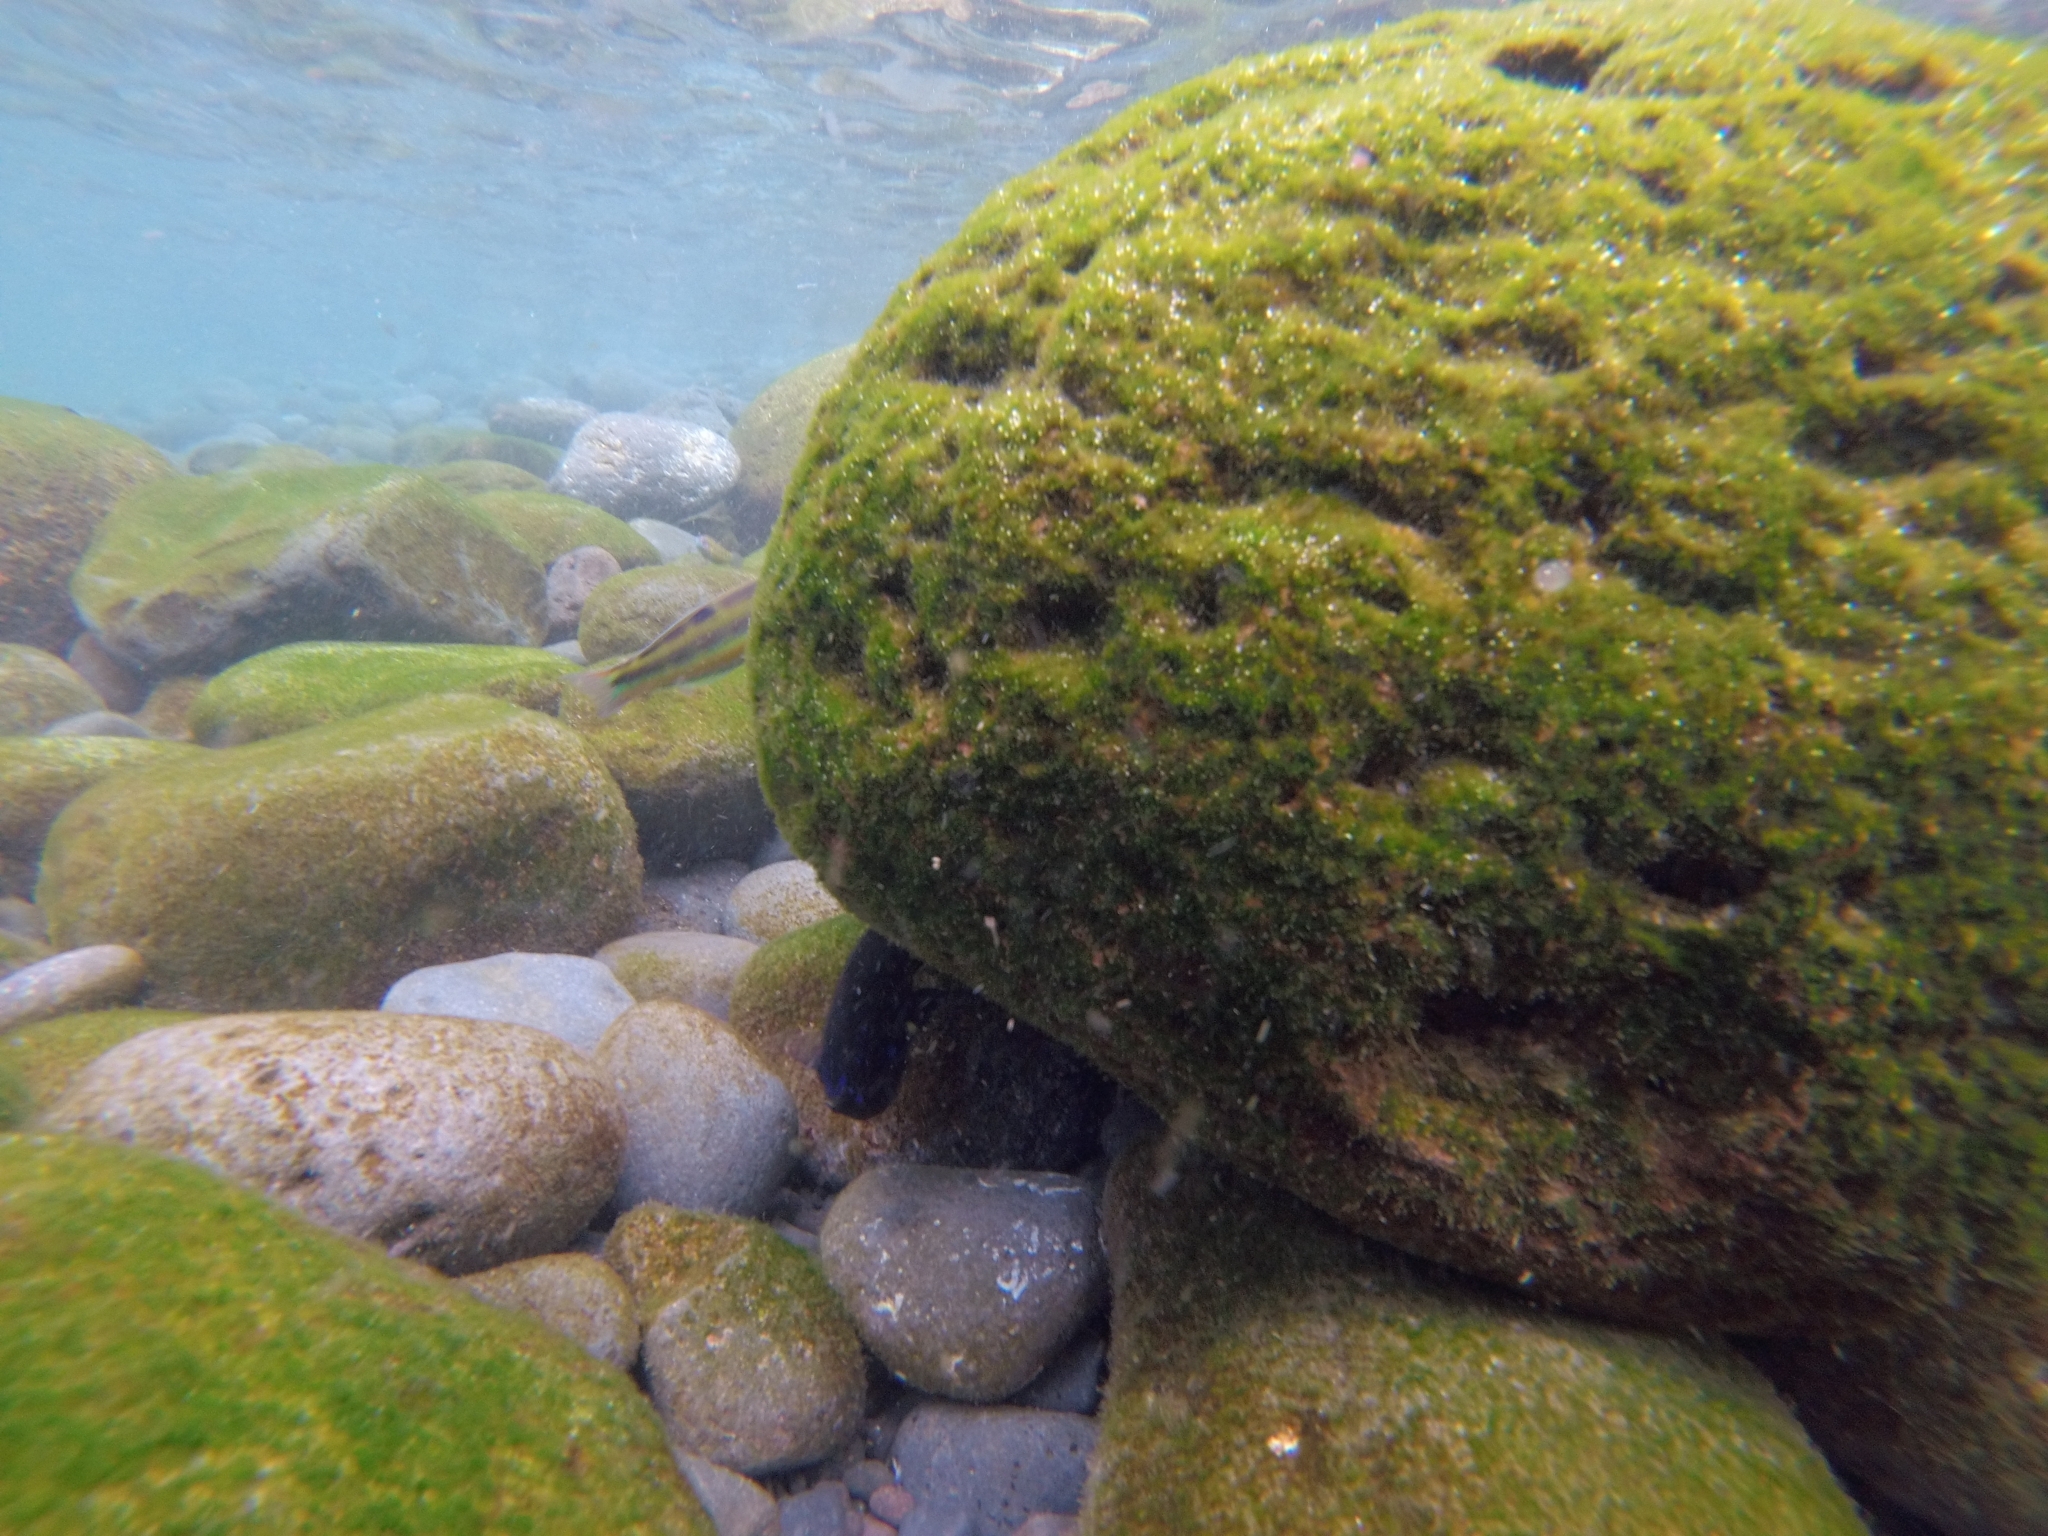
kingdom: Animalia
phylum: Chordata
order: Perciformes
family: Pomacentridae
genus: Similiparma
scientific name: Similiparma lurida
